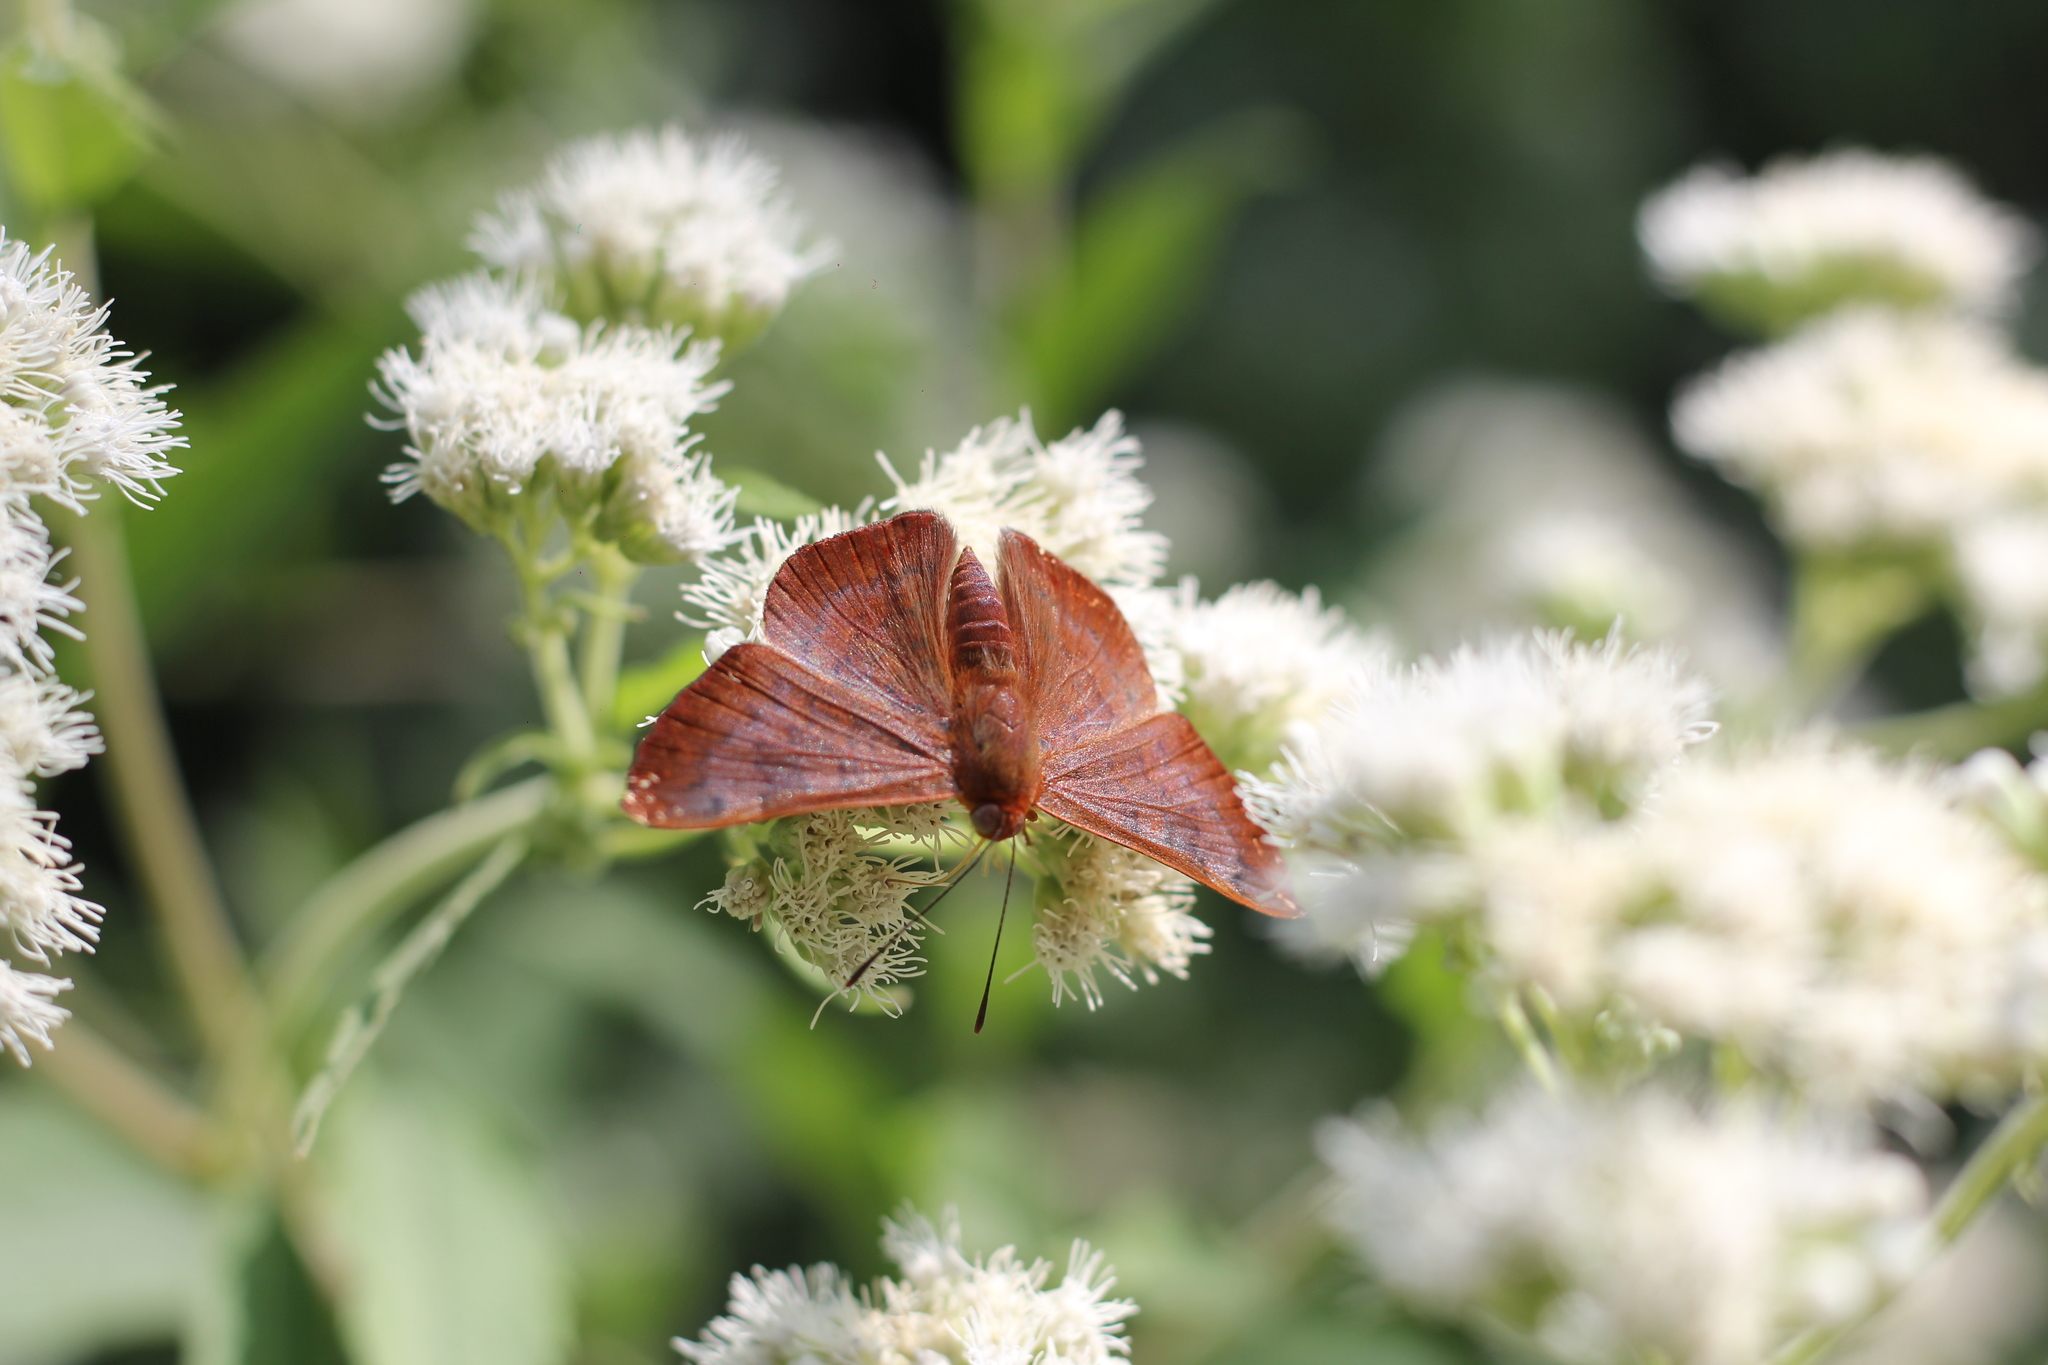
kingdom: Animalia
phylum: Arthropoda
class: Insecta
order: Lepidoptera
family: Lycaenidae
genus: Emesis
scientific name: Emesis russula
